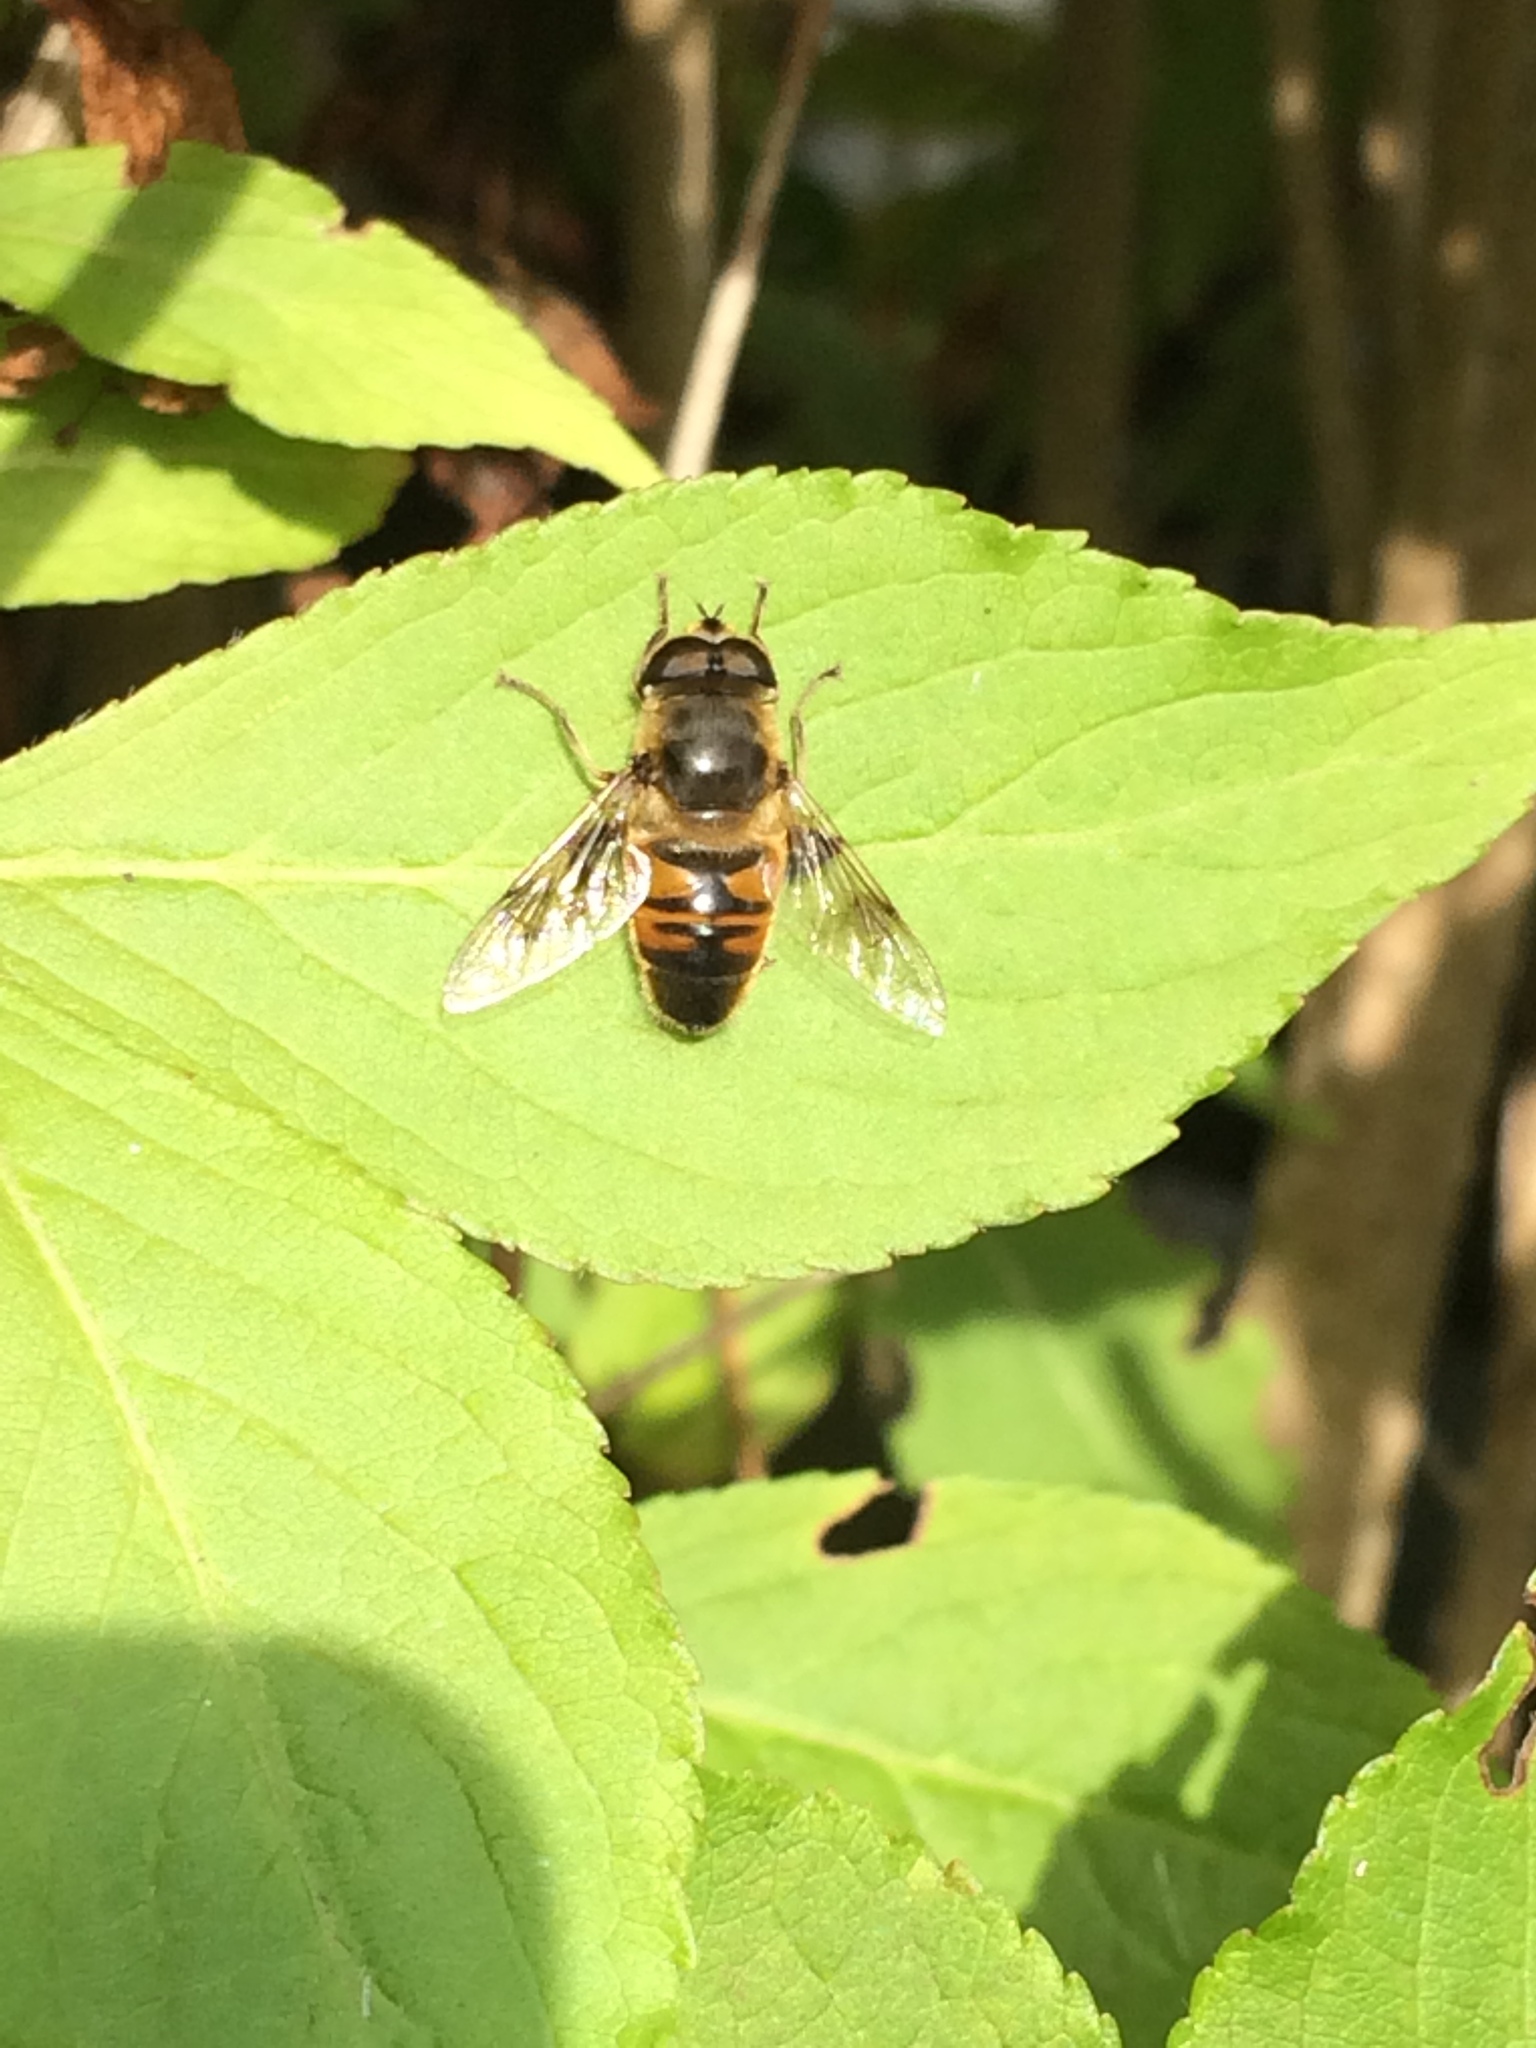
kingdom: Animalia
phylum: Arthropoda
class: Insecta
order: Diptera
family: Syrphidae
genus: Eristalis
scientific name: Eristalis tenax
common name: Drone fly
